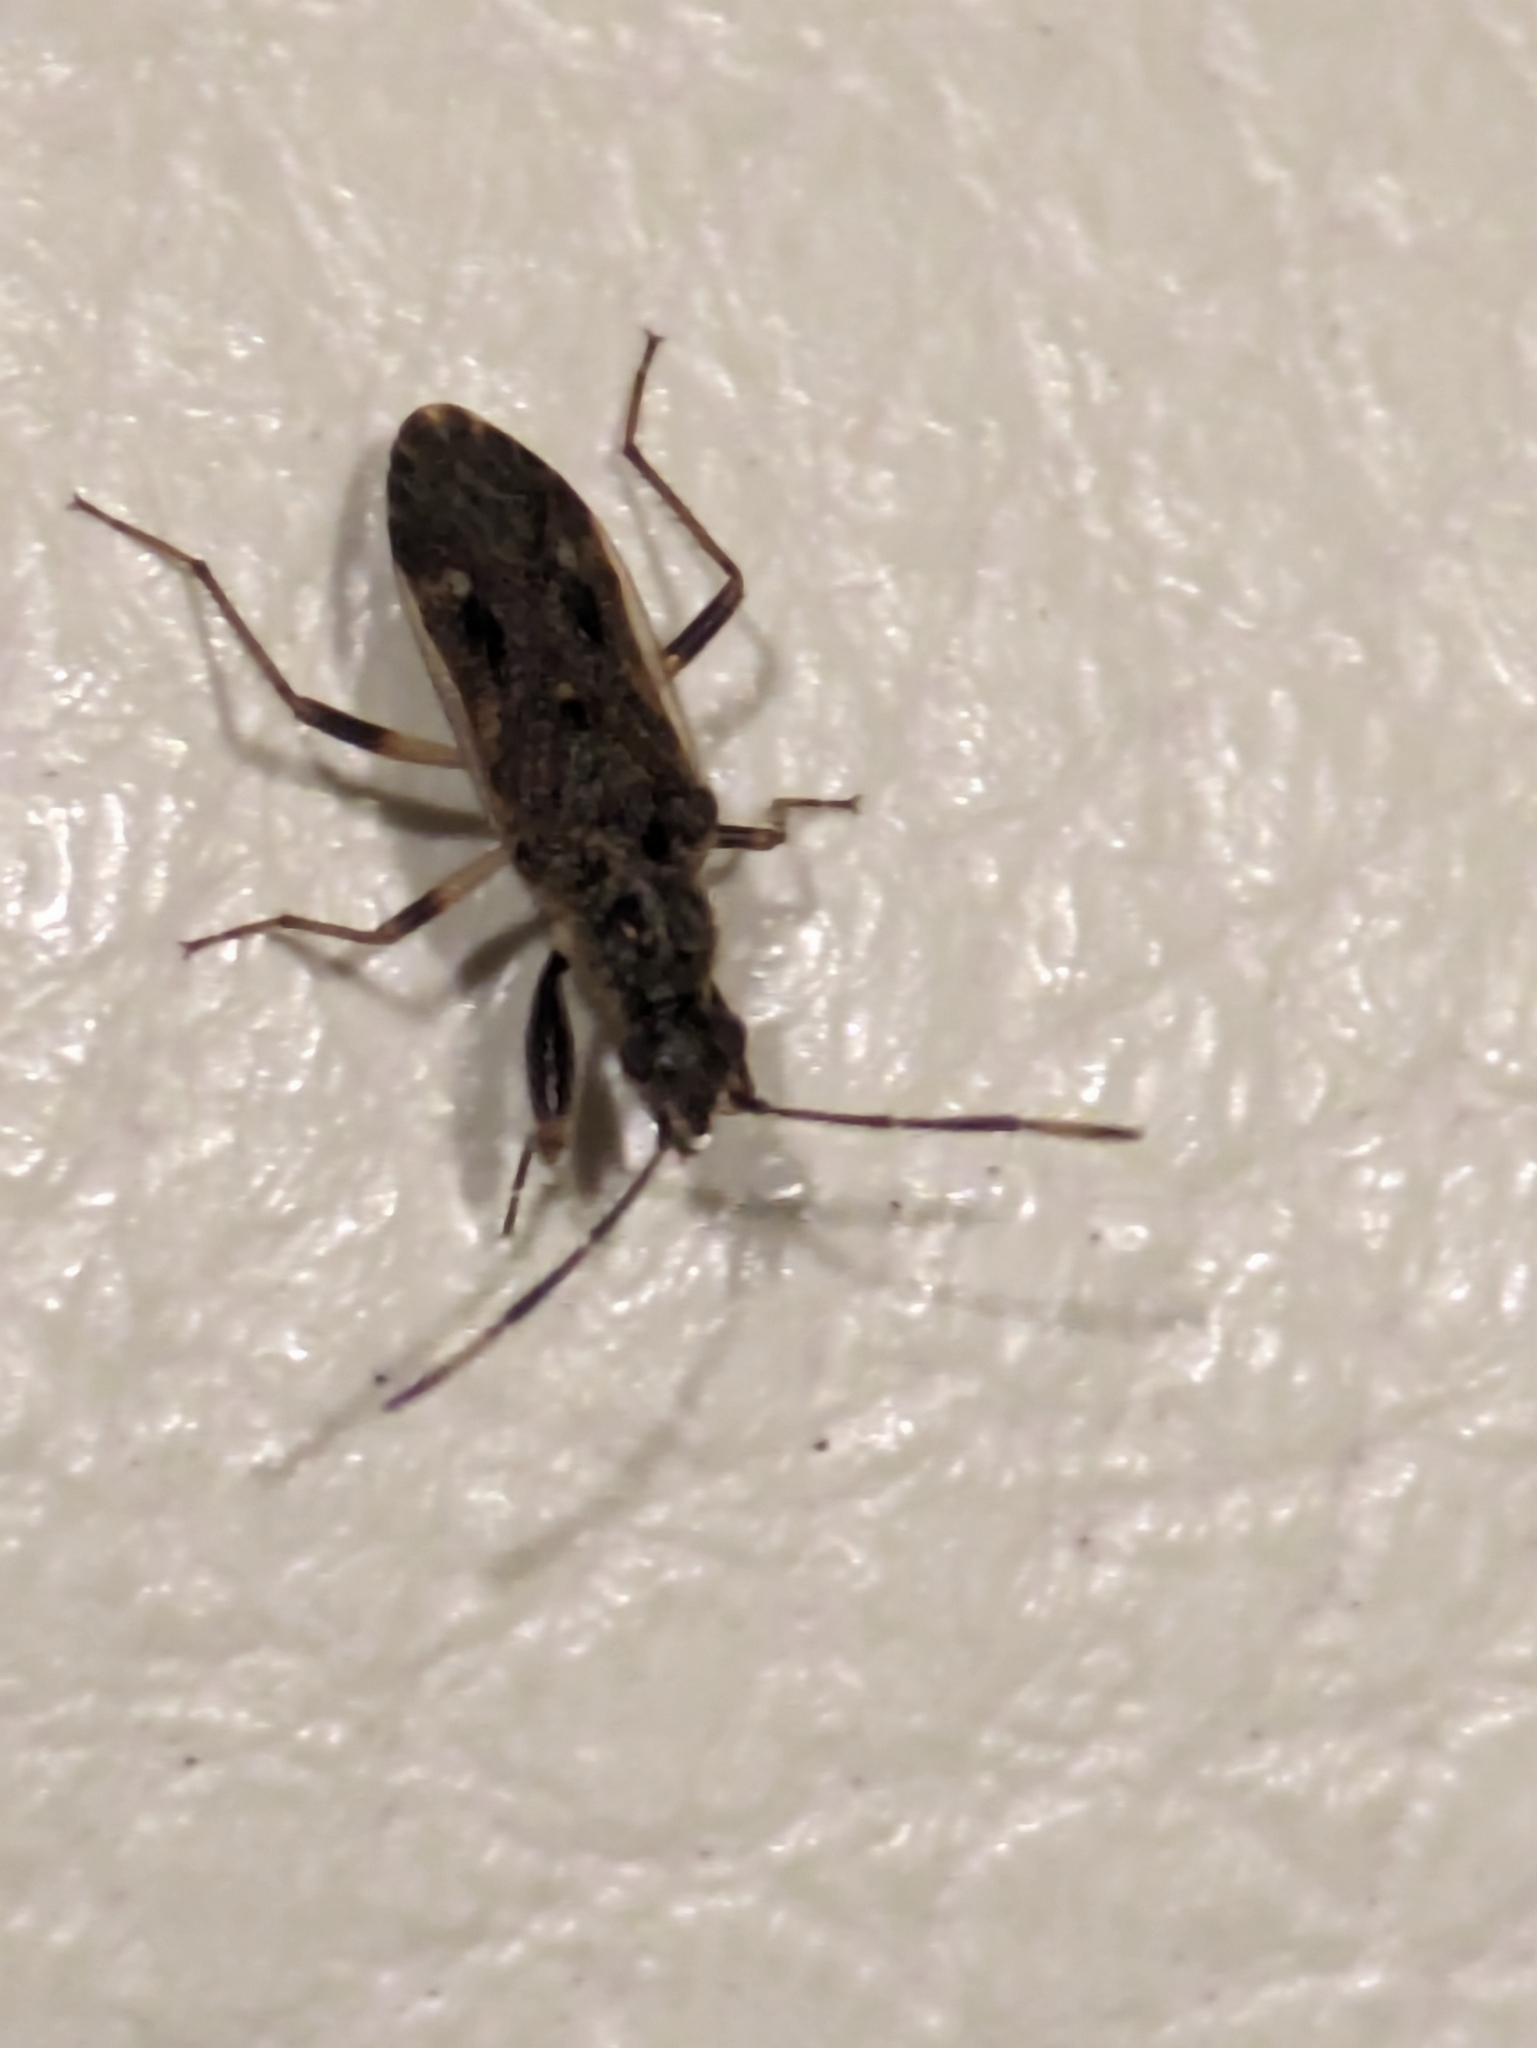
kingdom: Animalia
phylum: Arthropoda
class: Insecta
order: Hemiptera
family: Rhyparochromidae
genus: Horridipamera
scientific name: Horridipamera nietneri
